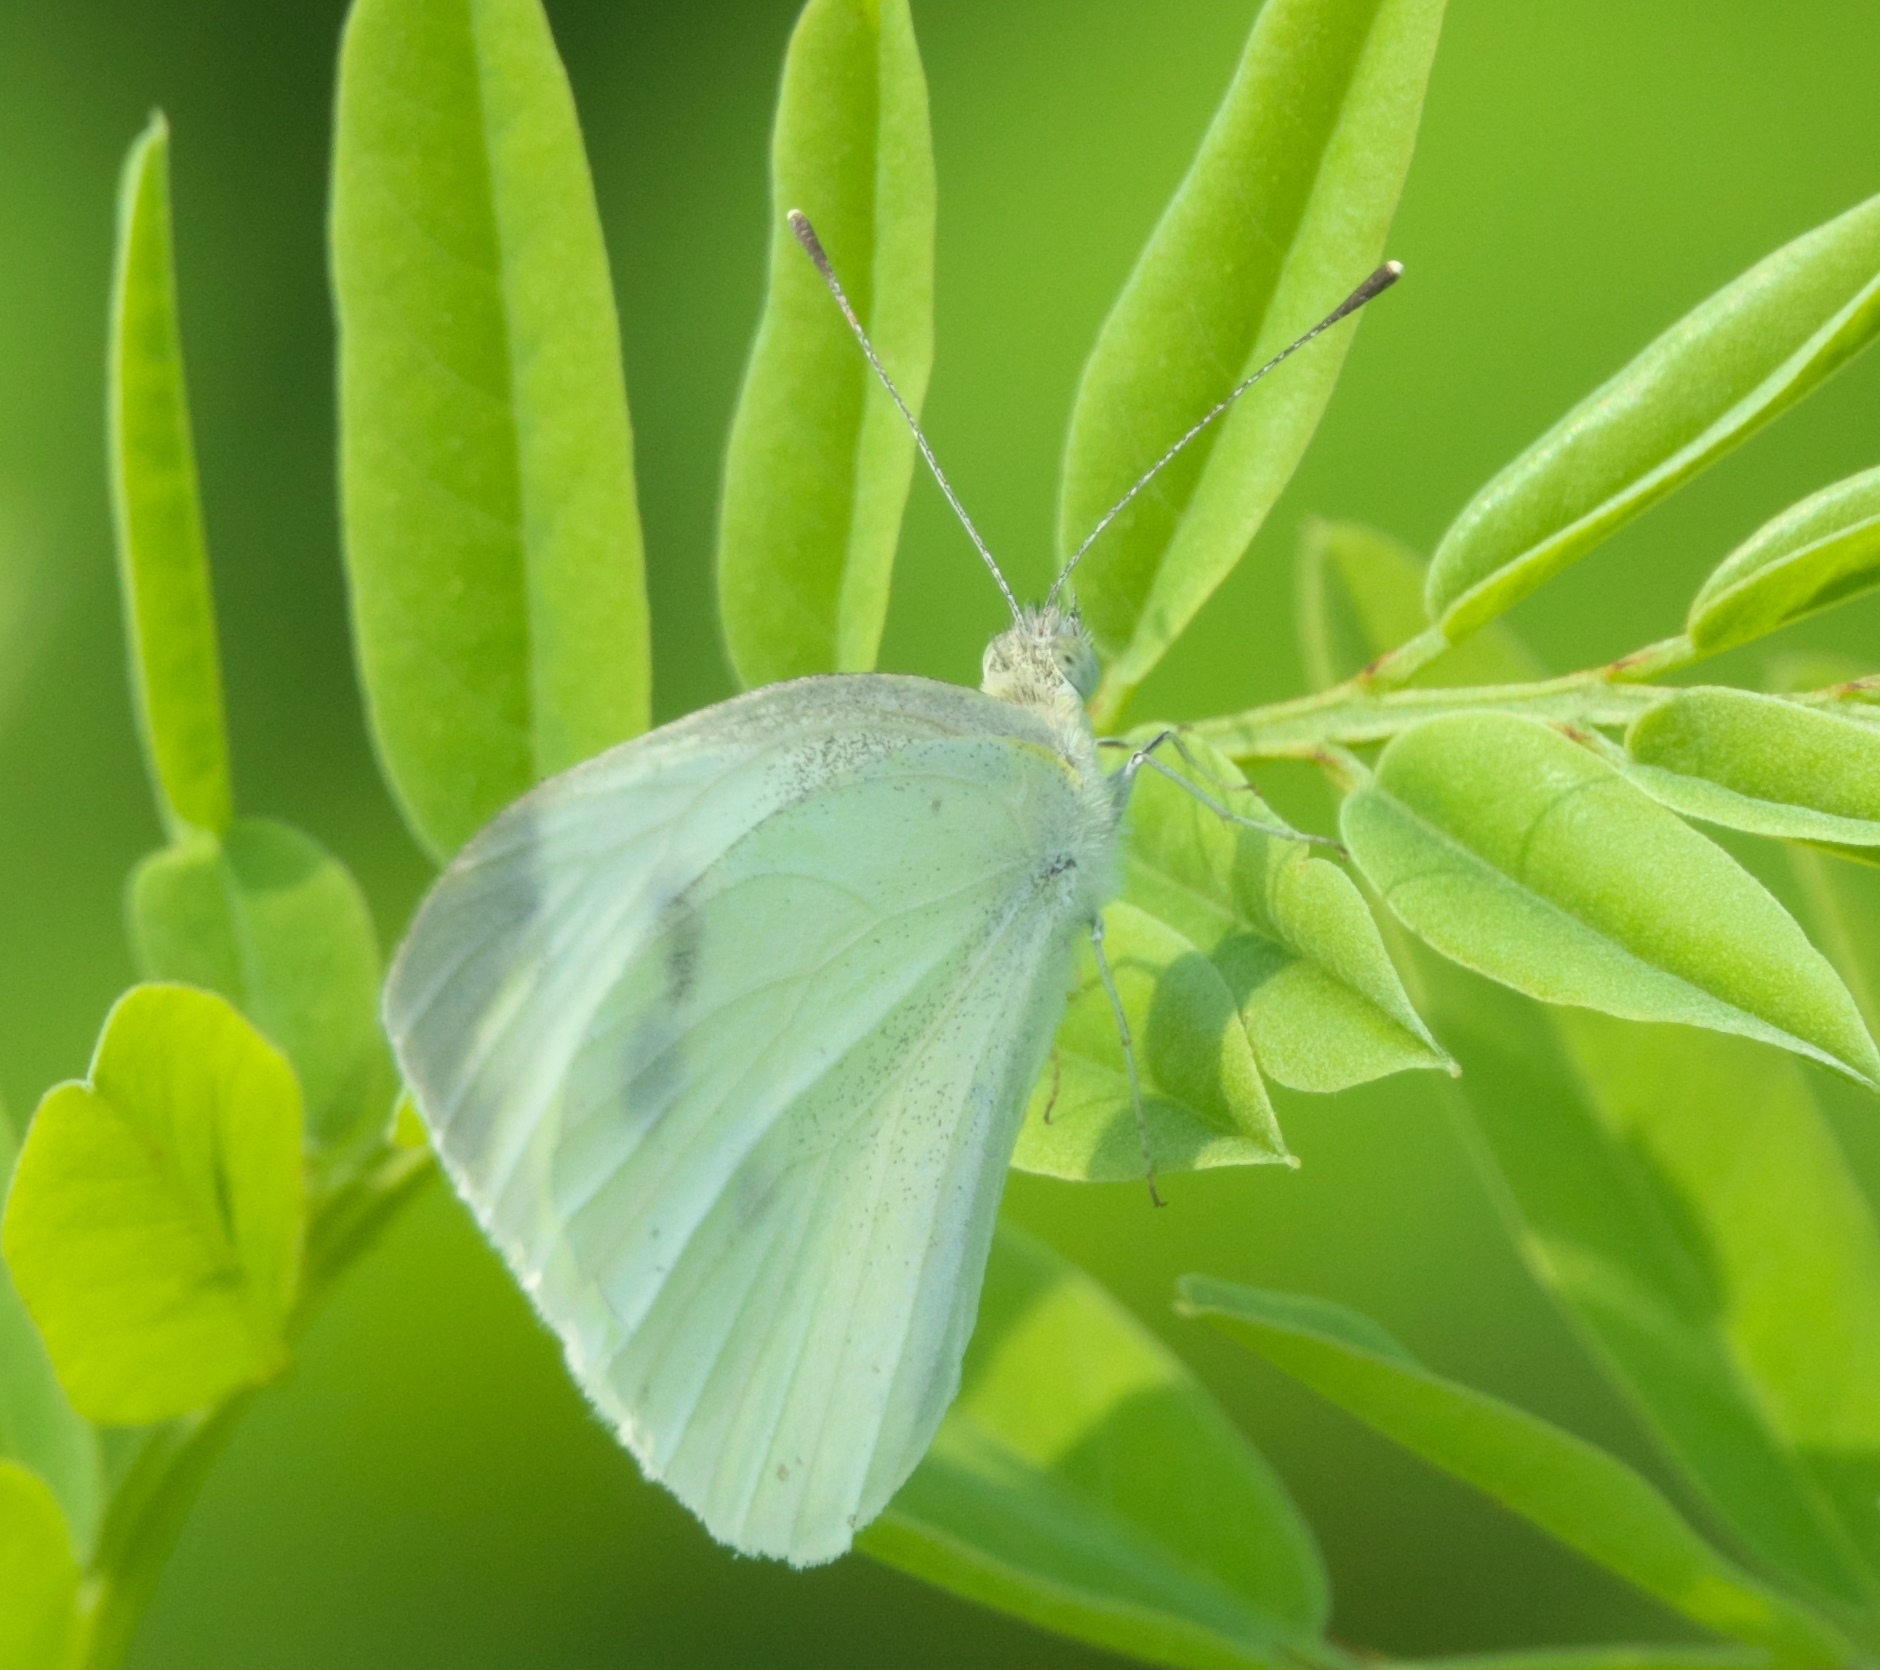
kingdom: Animalia
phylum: Arthropoda
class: Insecta
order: Lepidoptera
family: Pieridae
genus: Pieris
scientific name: Pieris rapae
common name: Small white
